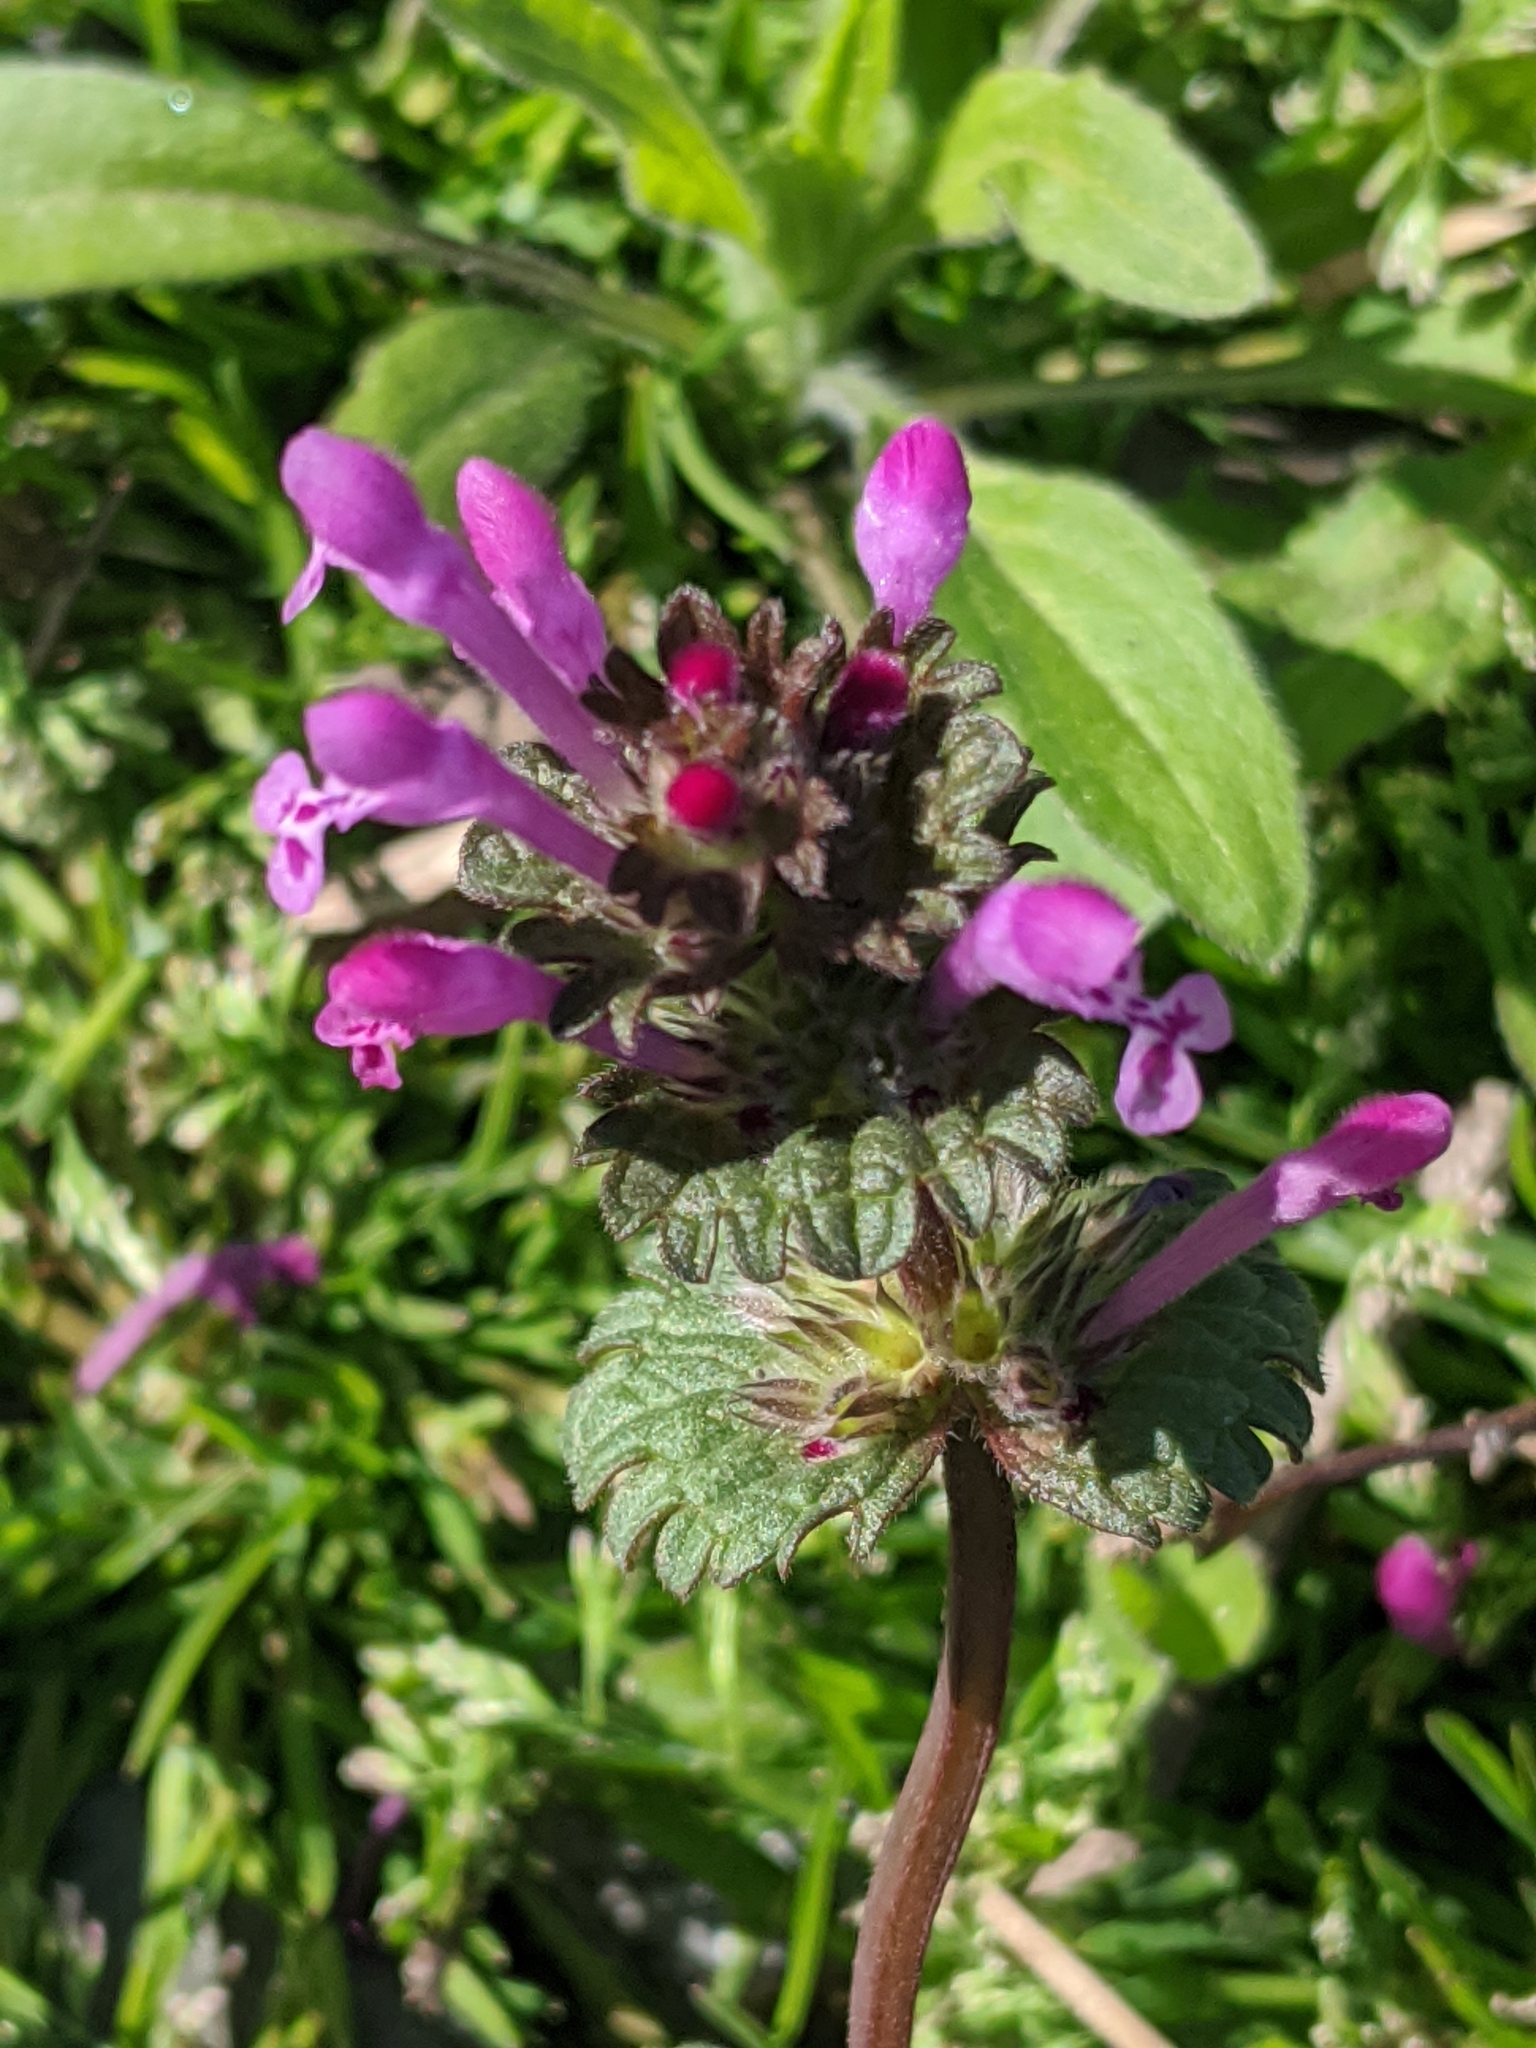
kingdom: Plantae
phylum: Tracheophyta
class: Magnoliopsida
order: Lamiales
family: Lamiaceae
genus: Lamium
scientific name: Lamium amplexicaule
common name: Henbit dead-nettle
